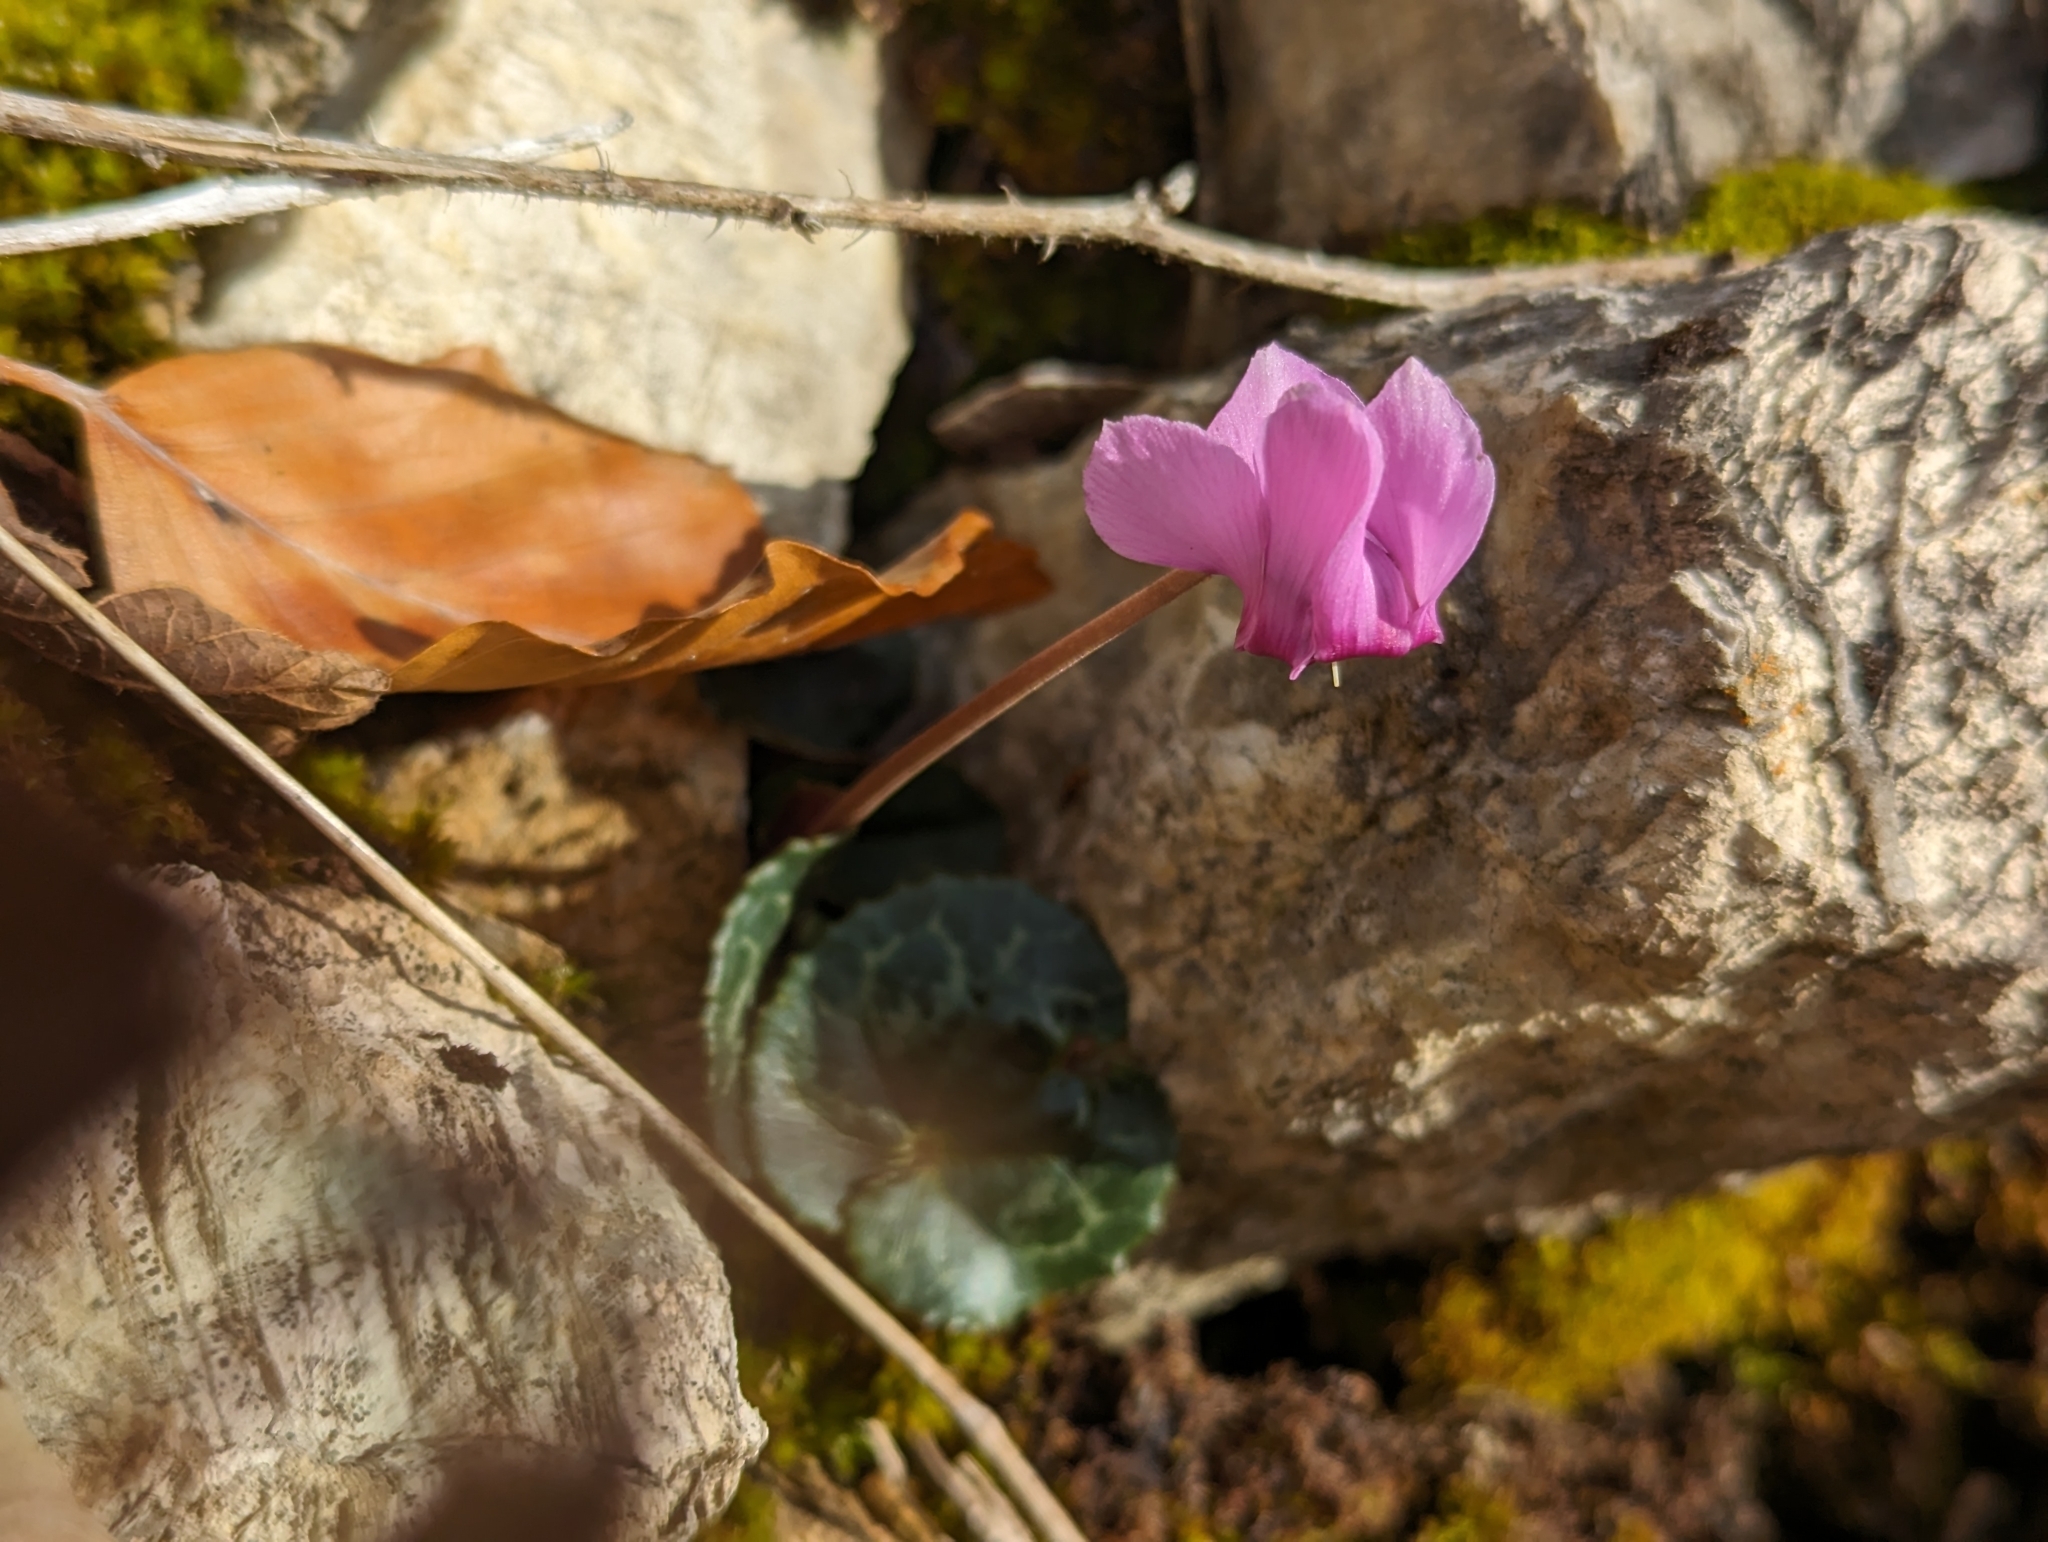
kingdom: Plantae
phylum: Tracheophyta
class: Magnoliopsida
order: Ericales
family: Primulaceae
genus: Cyclamen
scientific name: Cyclamen purpurascens
